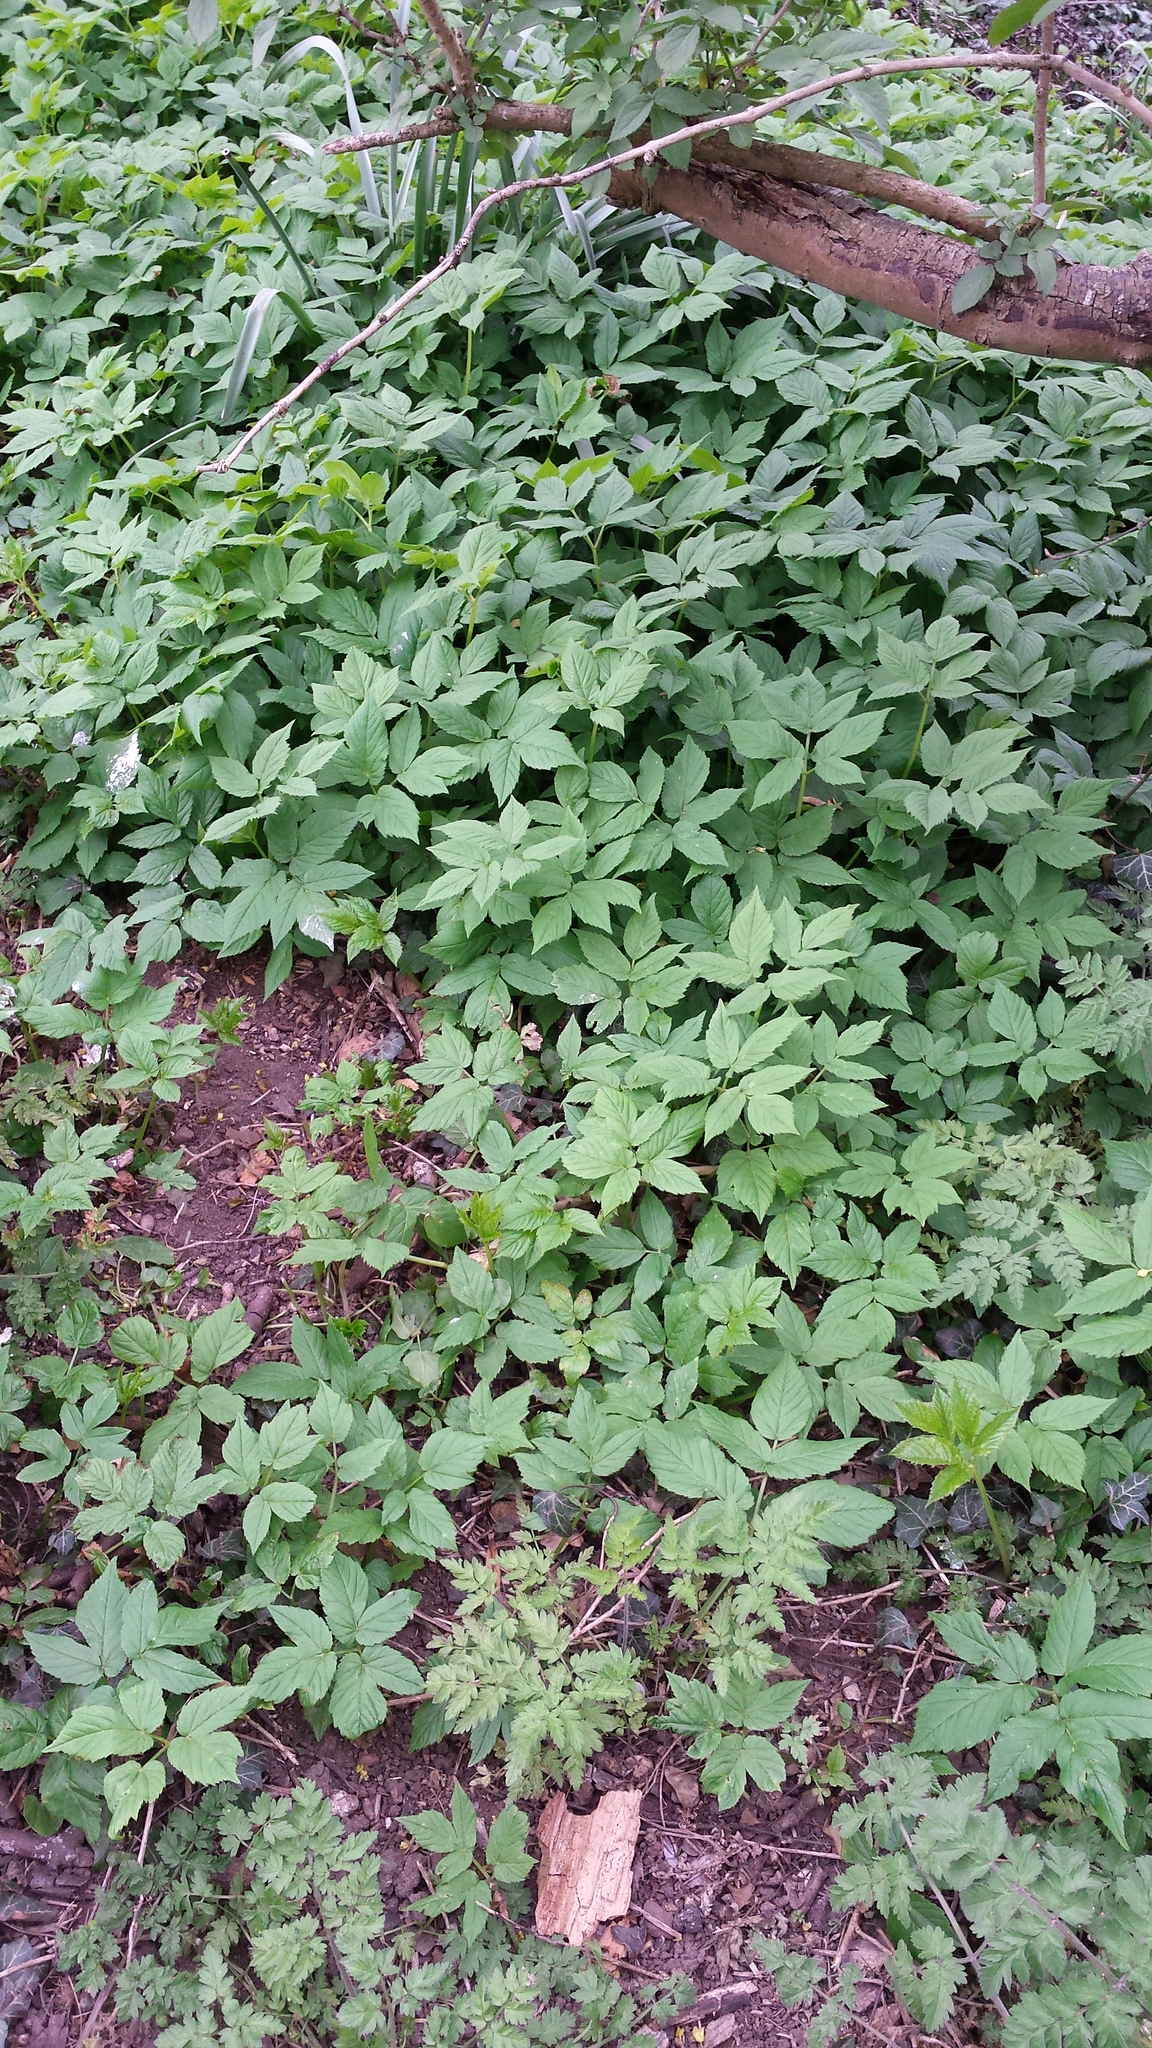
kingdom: Plantae
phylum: Tracheophyta
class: Magnoliopsida
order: Malpighiales
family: Euphorbiaceae
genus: Mercurialis
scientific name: Mercurialis perennis
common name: Dog mercury
